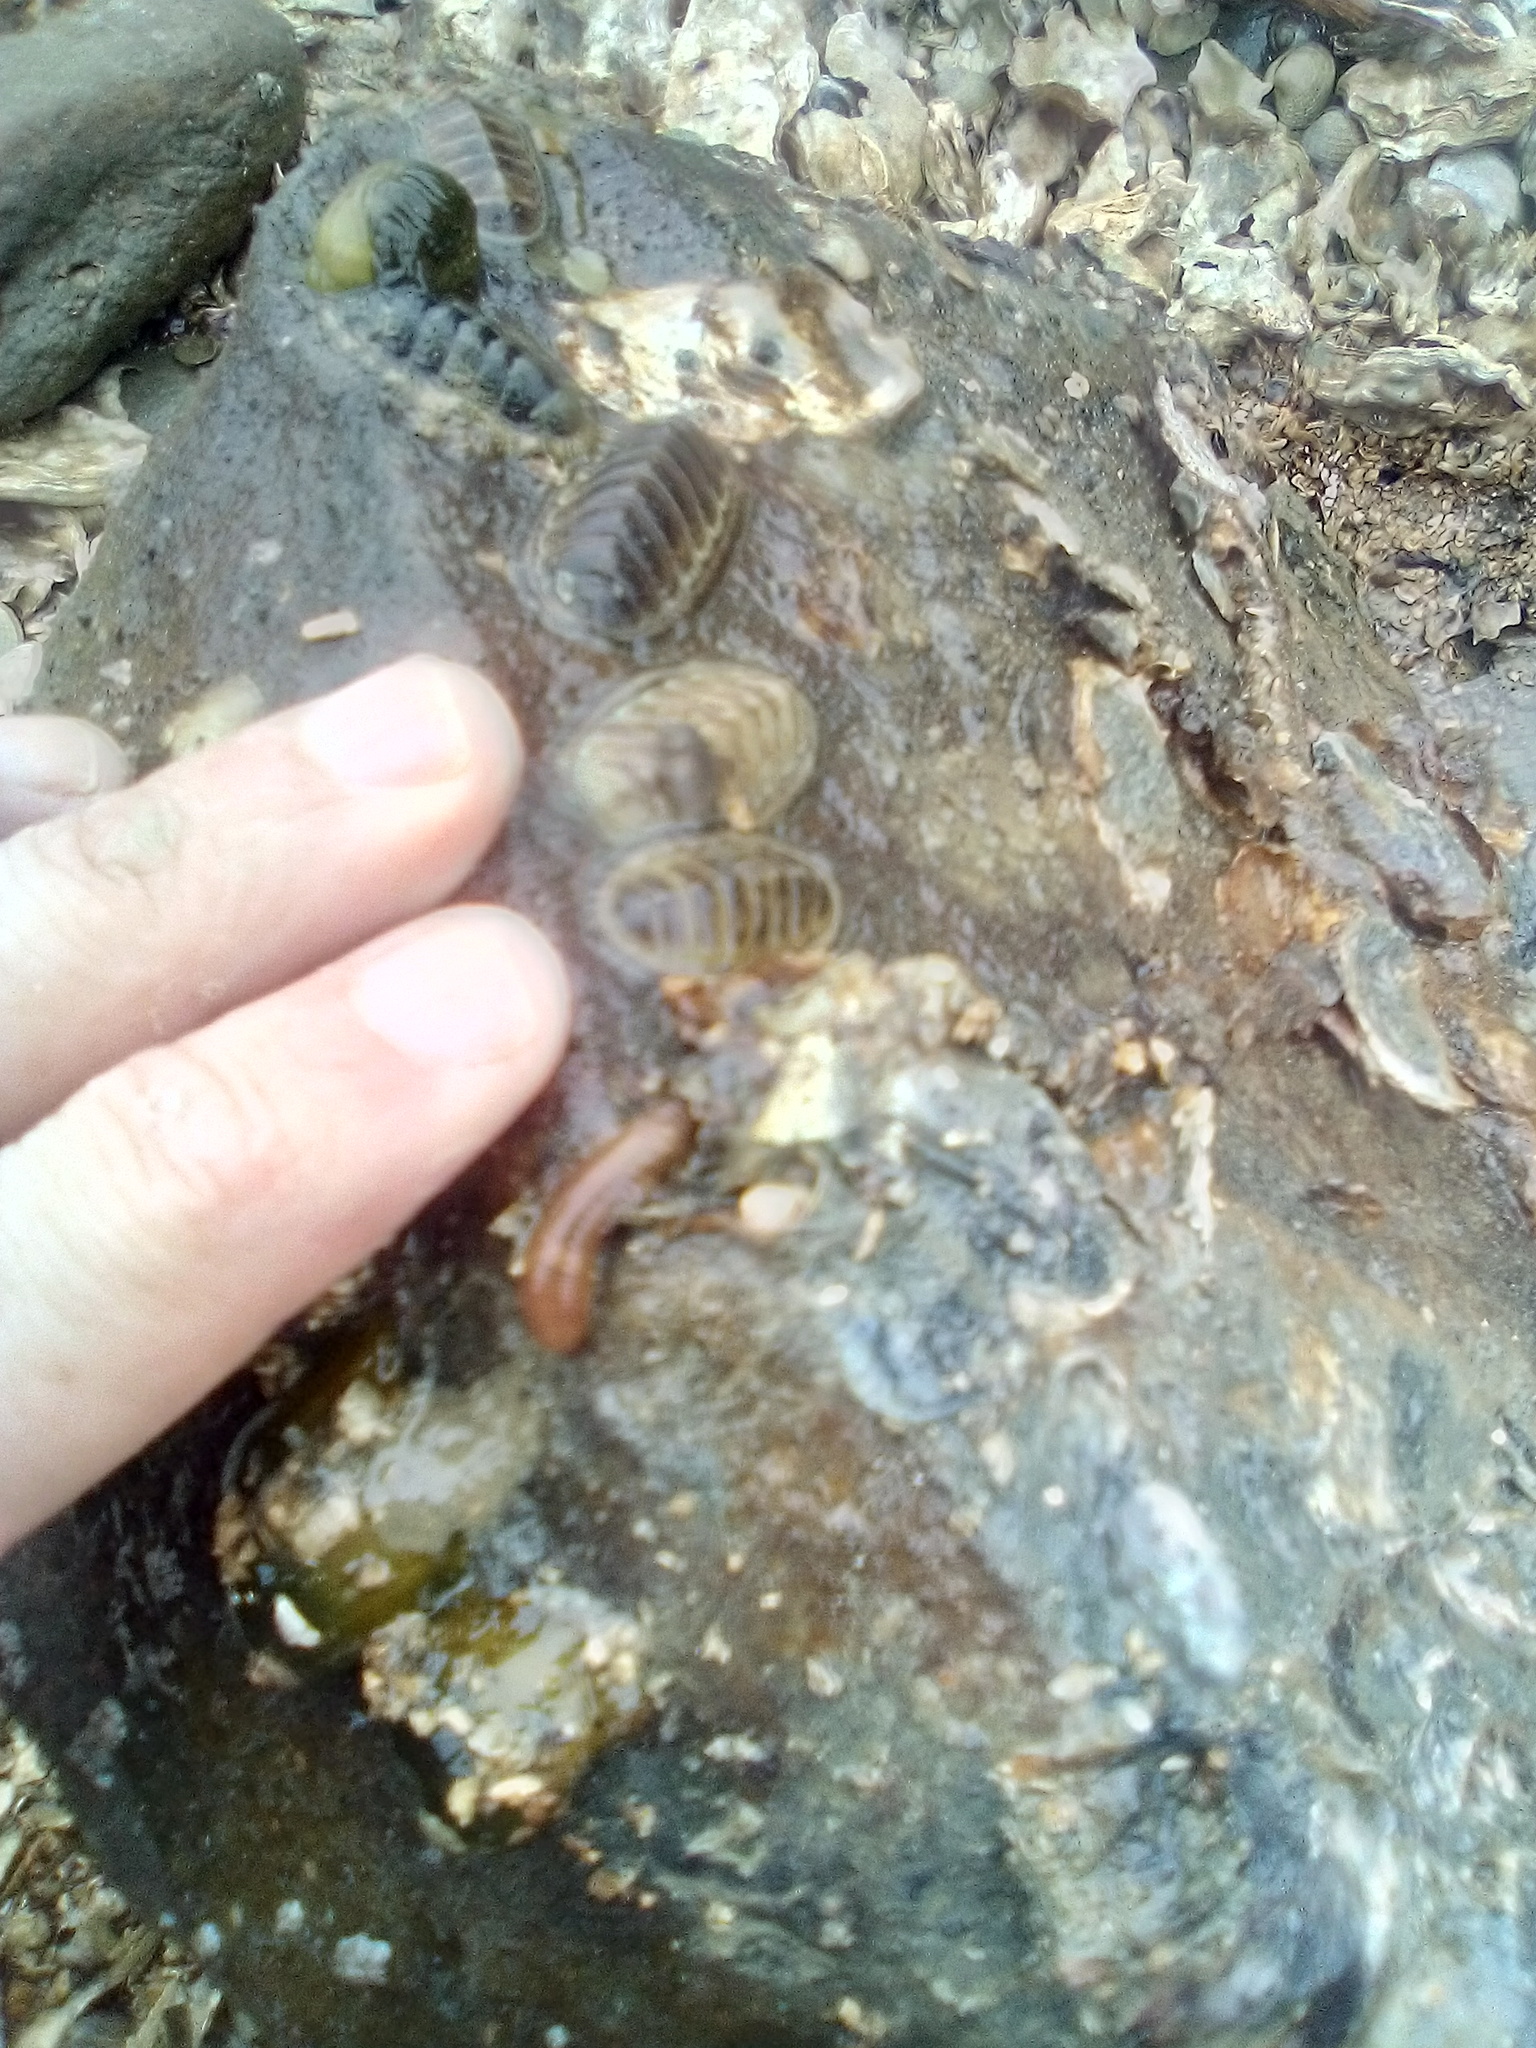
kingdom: Animalia
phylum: Annelida
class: Polychaeta
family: Terebellidae
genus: Streblosoma
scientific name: Streblosoma toddae
